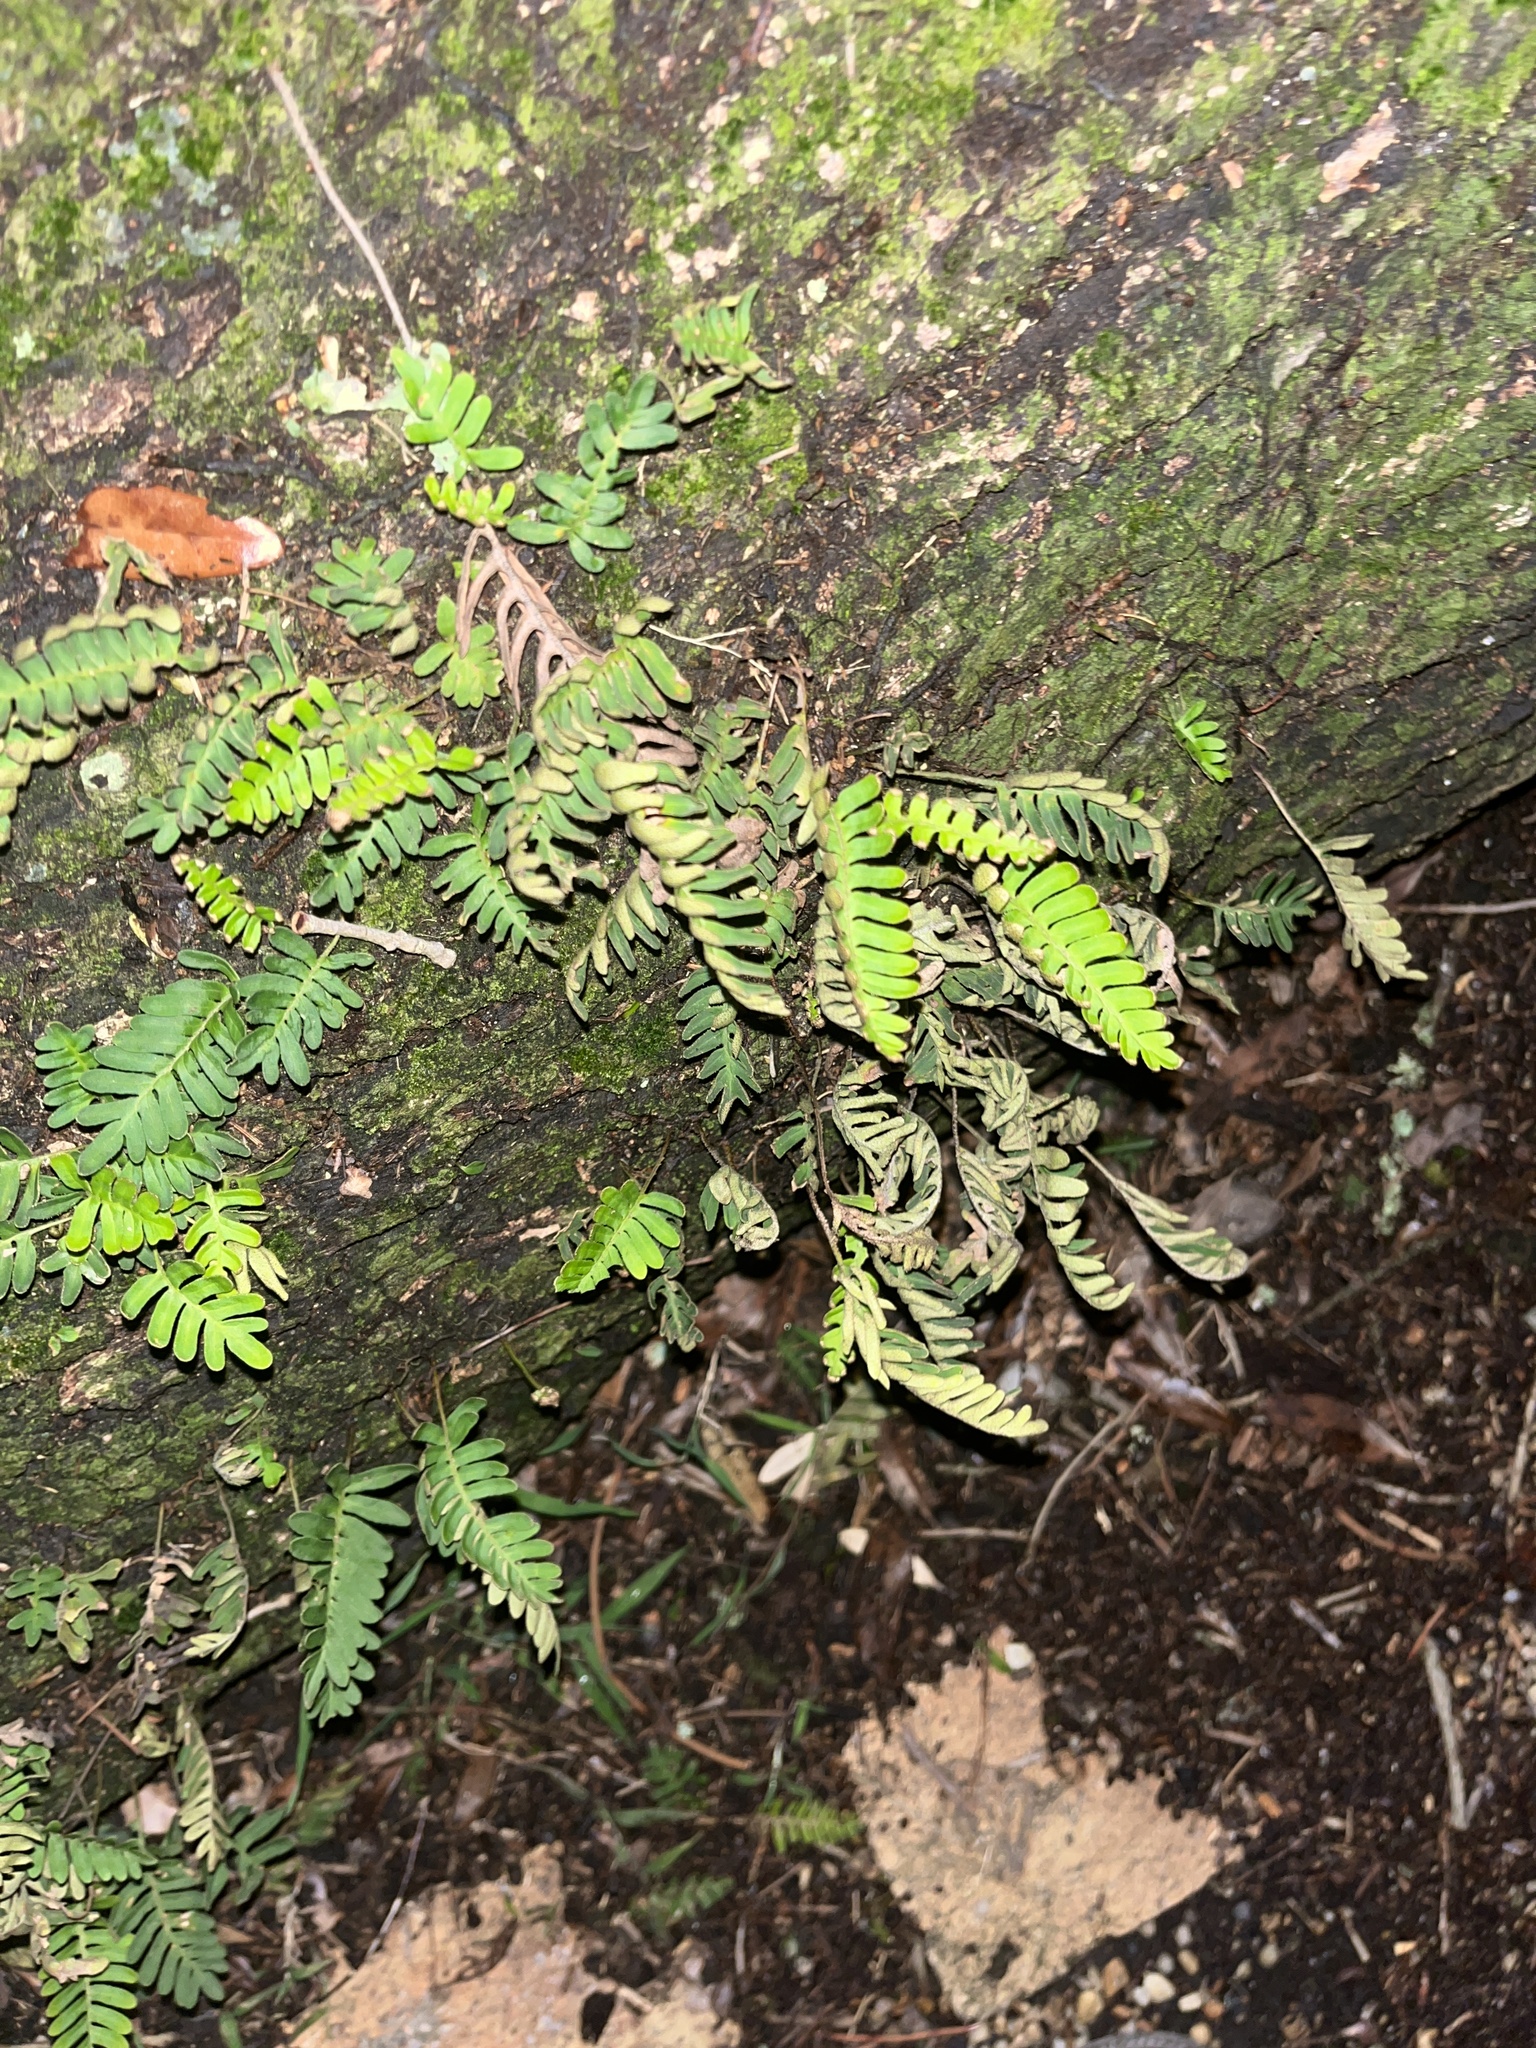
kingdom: Plantae
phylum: Tracheophyta
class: Polypodiopsida
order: Polypodiales
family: Polypodiaceae
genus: Pleopeltis
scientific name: Pleopeltis michauxiana
